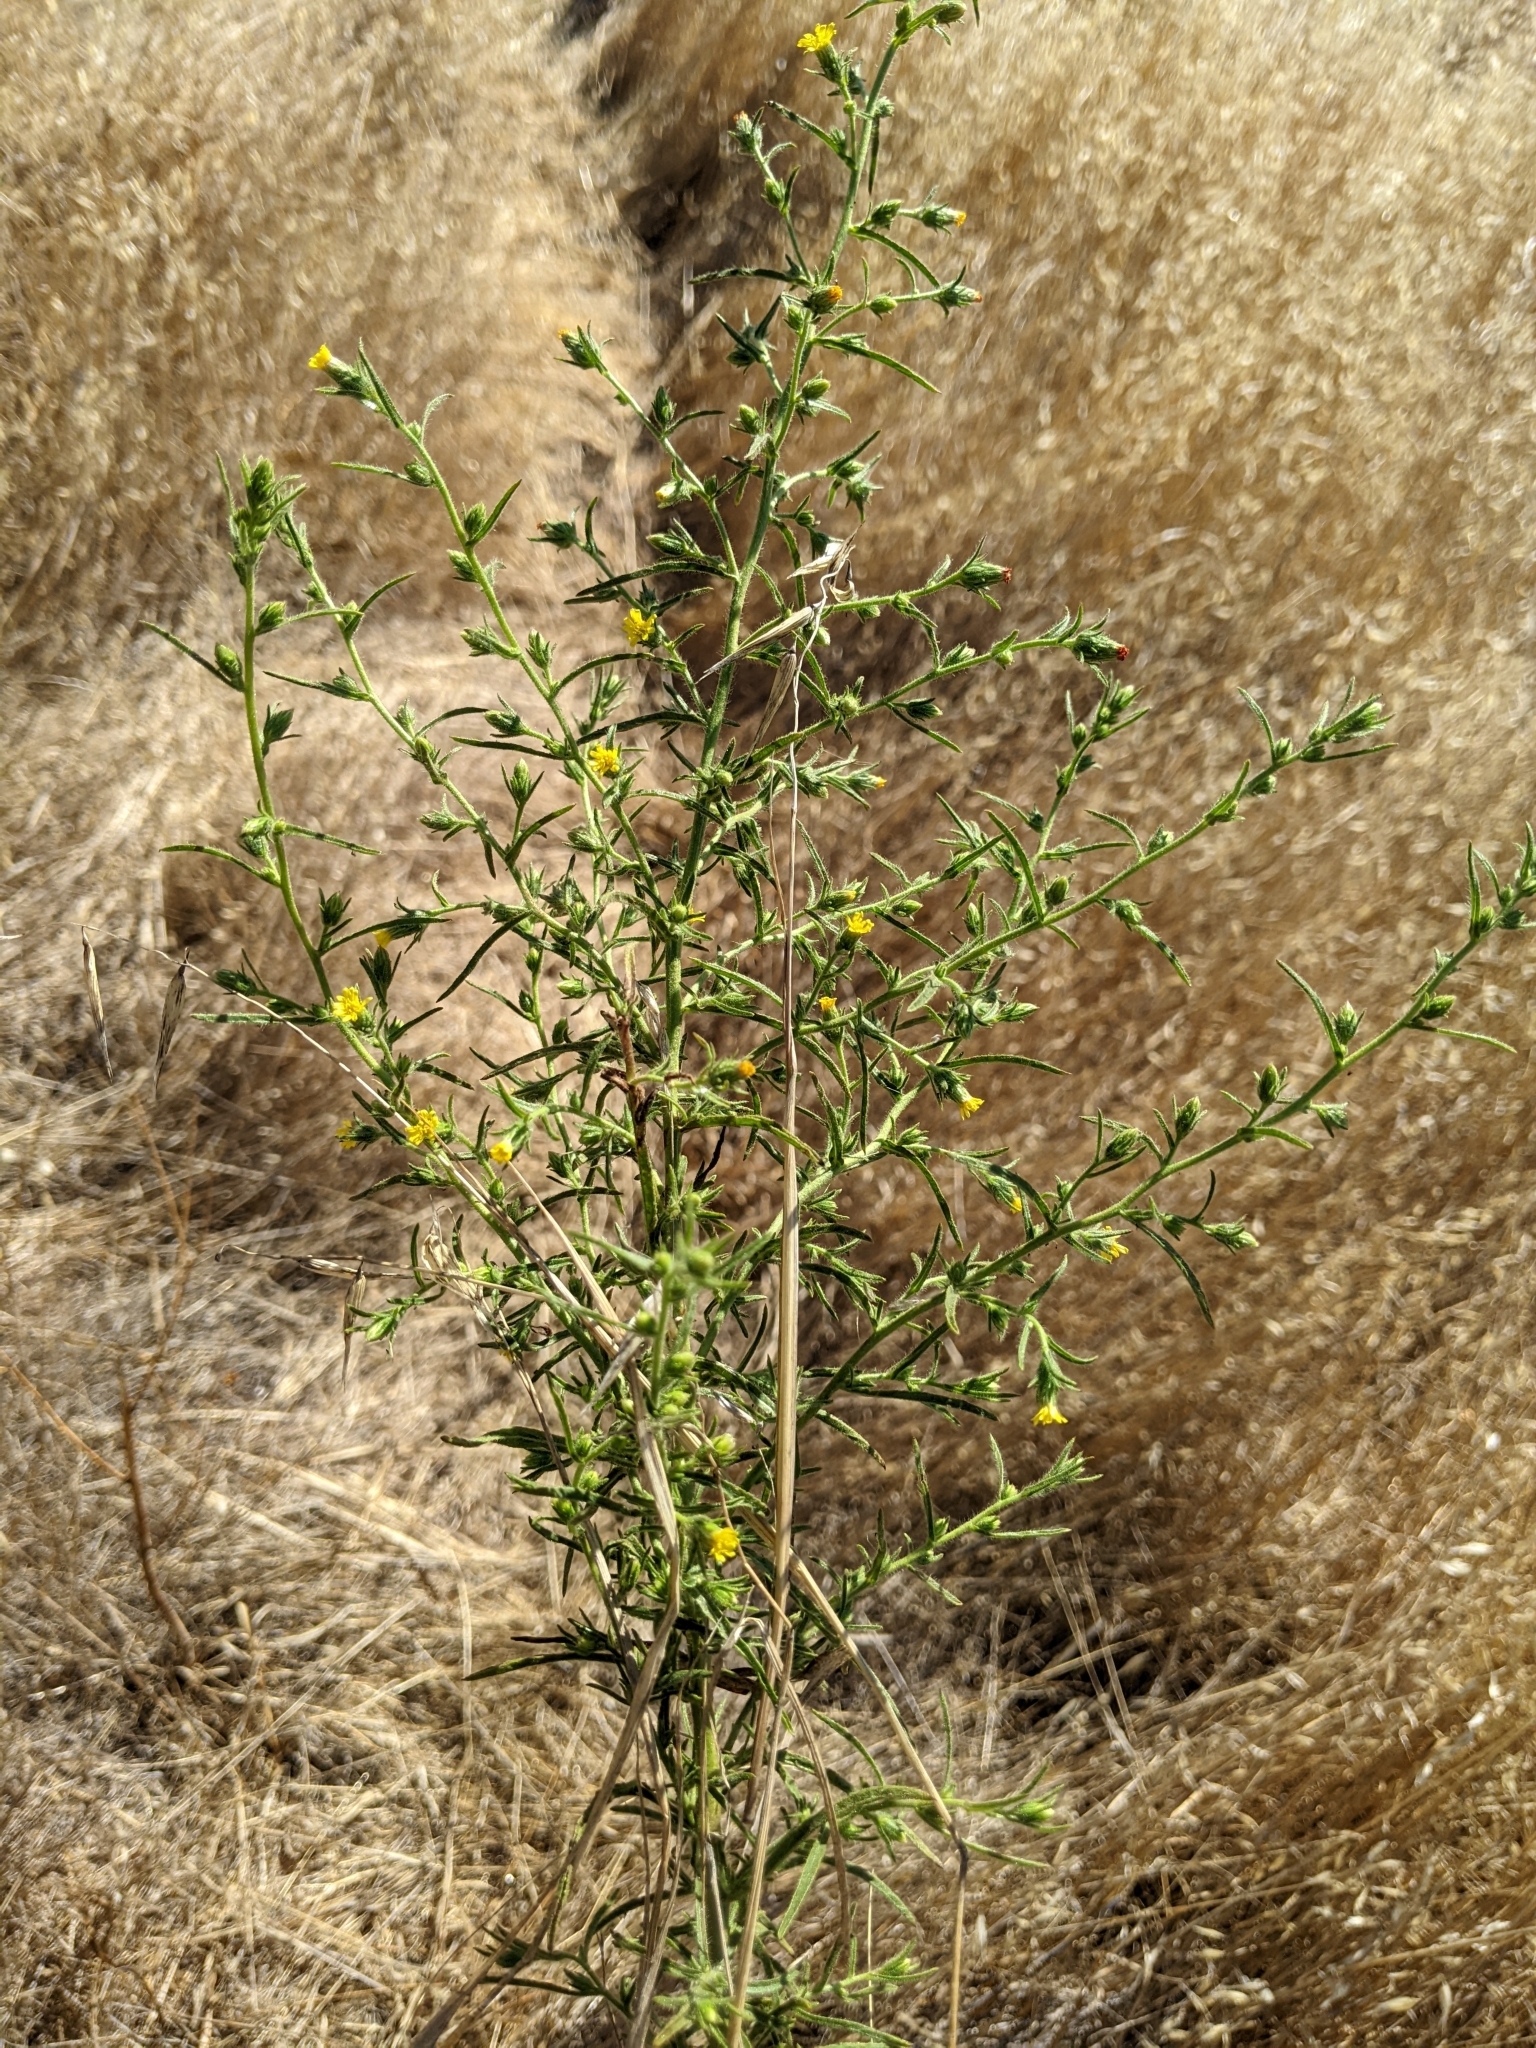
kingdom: Plantae
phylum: Tracheophyta
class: Magnoliopsida
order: Asterales
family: Asteraceae
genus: Dittrichia
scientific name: Dittrichia graveolens
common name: Stinking fleabane
